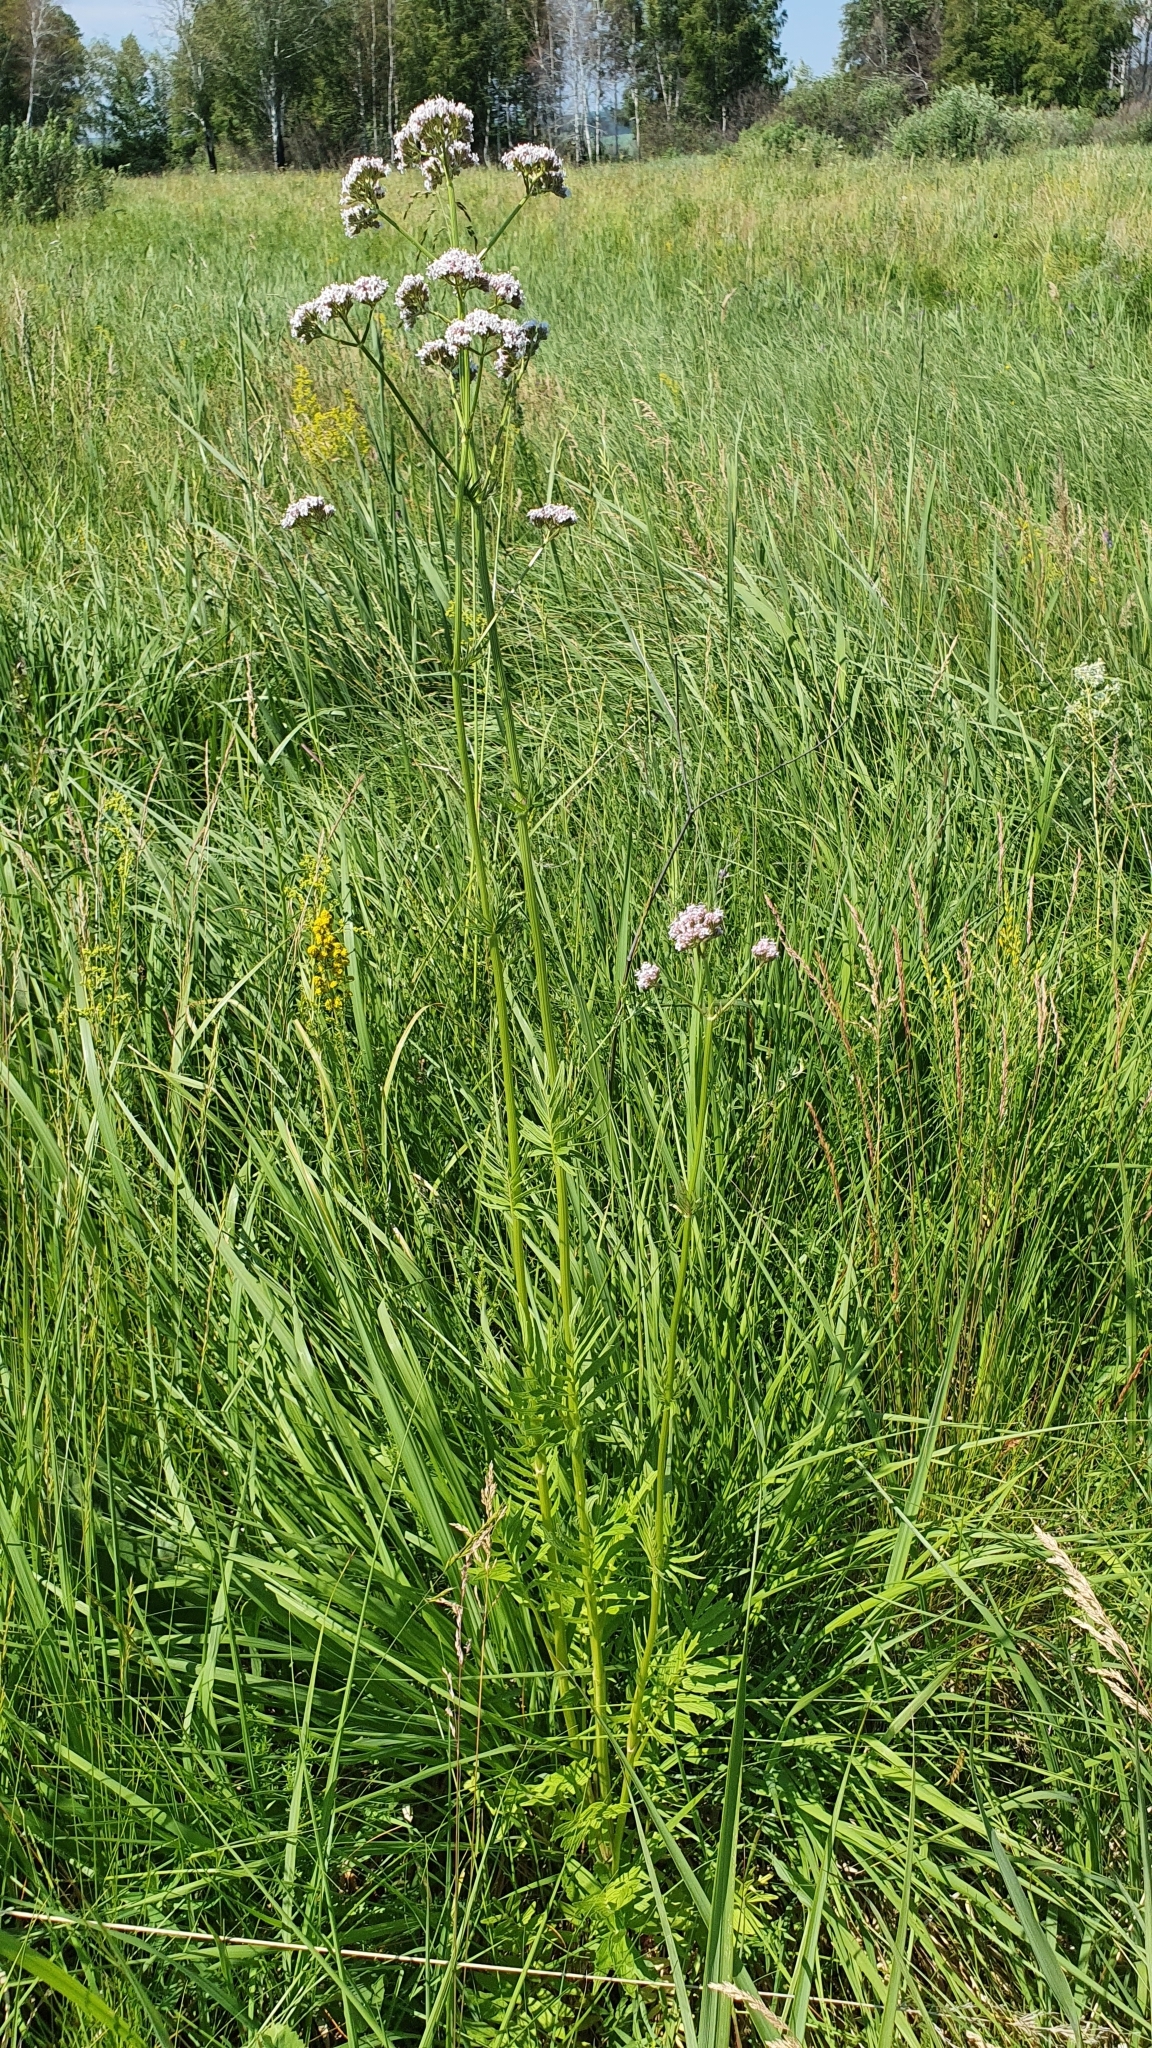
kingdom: Plantae
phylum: Tracheophyta
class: Magnoliopsida
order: Dipsacales
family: Caprifoliaceae
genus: Valeriana
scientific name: Valeriana rossica
